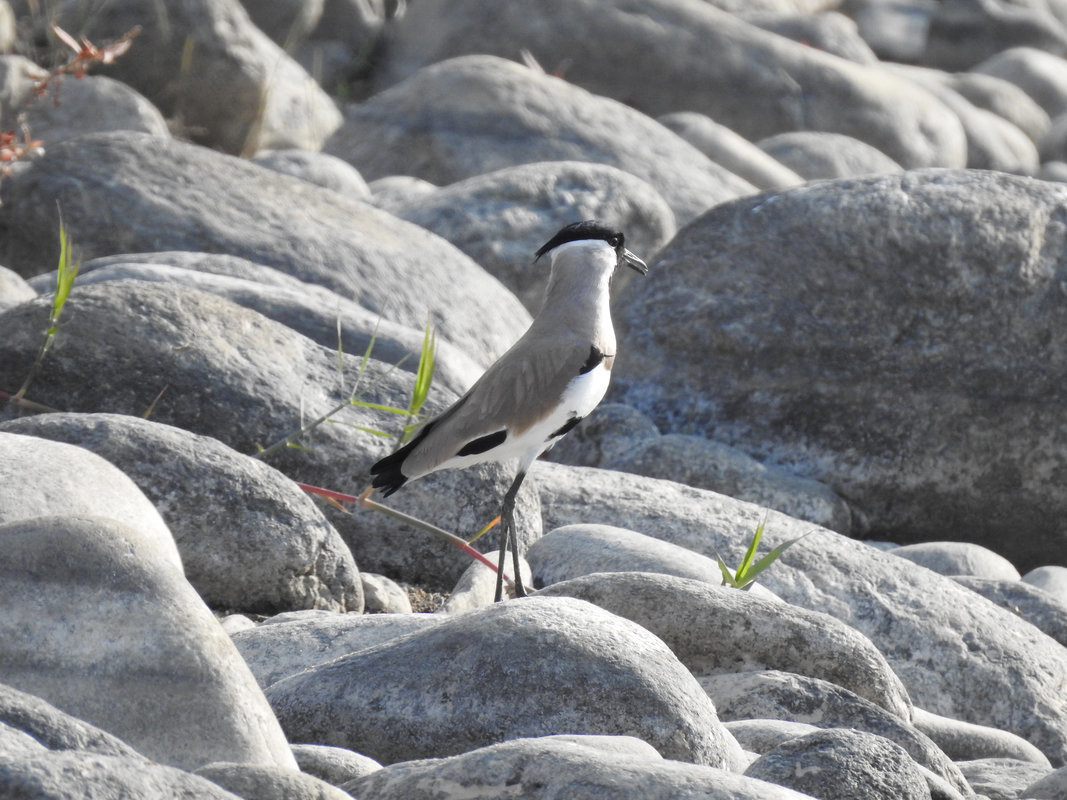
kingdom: Animalia
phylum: Chordata
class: Aves
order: Charadriiformes
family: Charadriidae
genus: Vanellus
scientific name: Vanellus duvaucelii
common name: River lapwing
